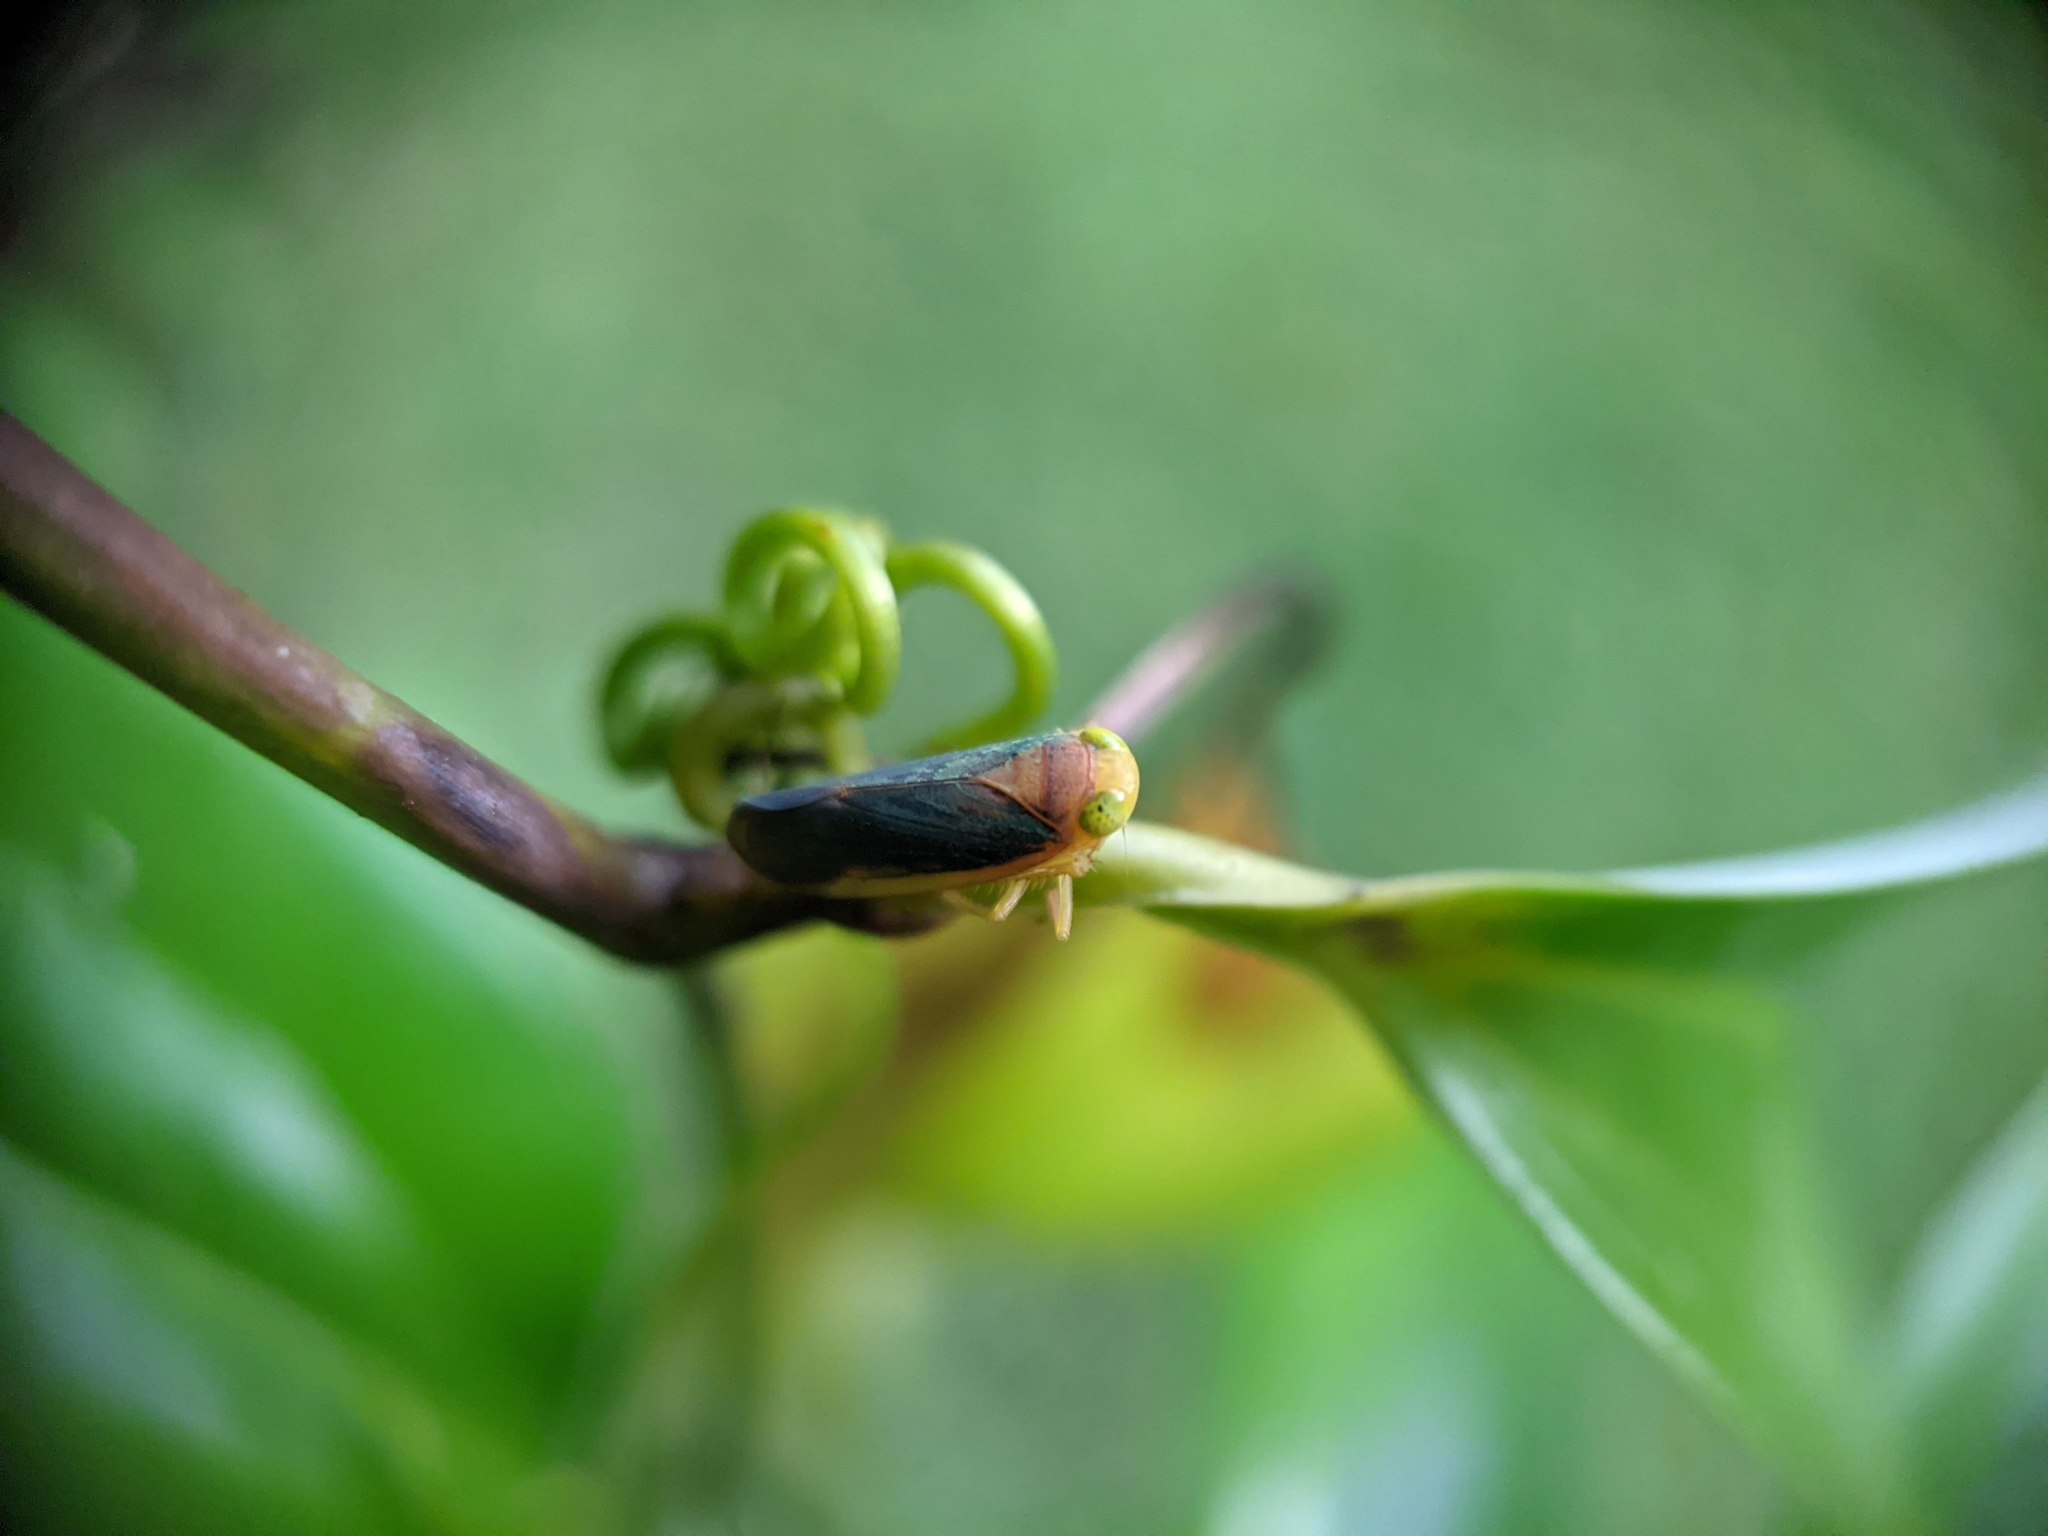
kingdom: Animalia
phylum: Arthropoda
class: Insecta
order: Hemiptera
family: Cicadellidae
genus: Jikradia
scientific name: Jikradia melanotus
